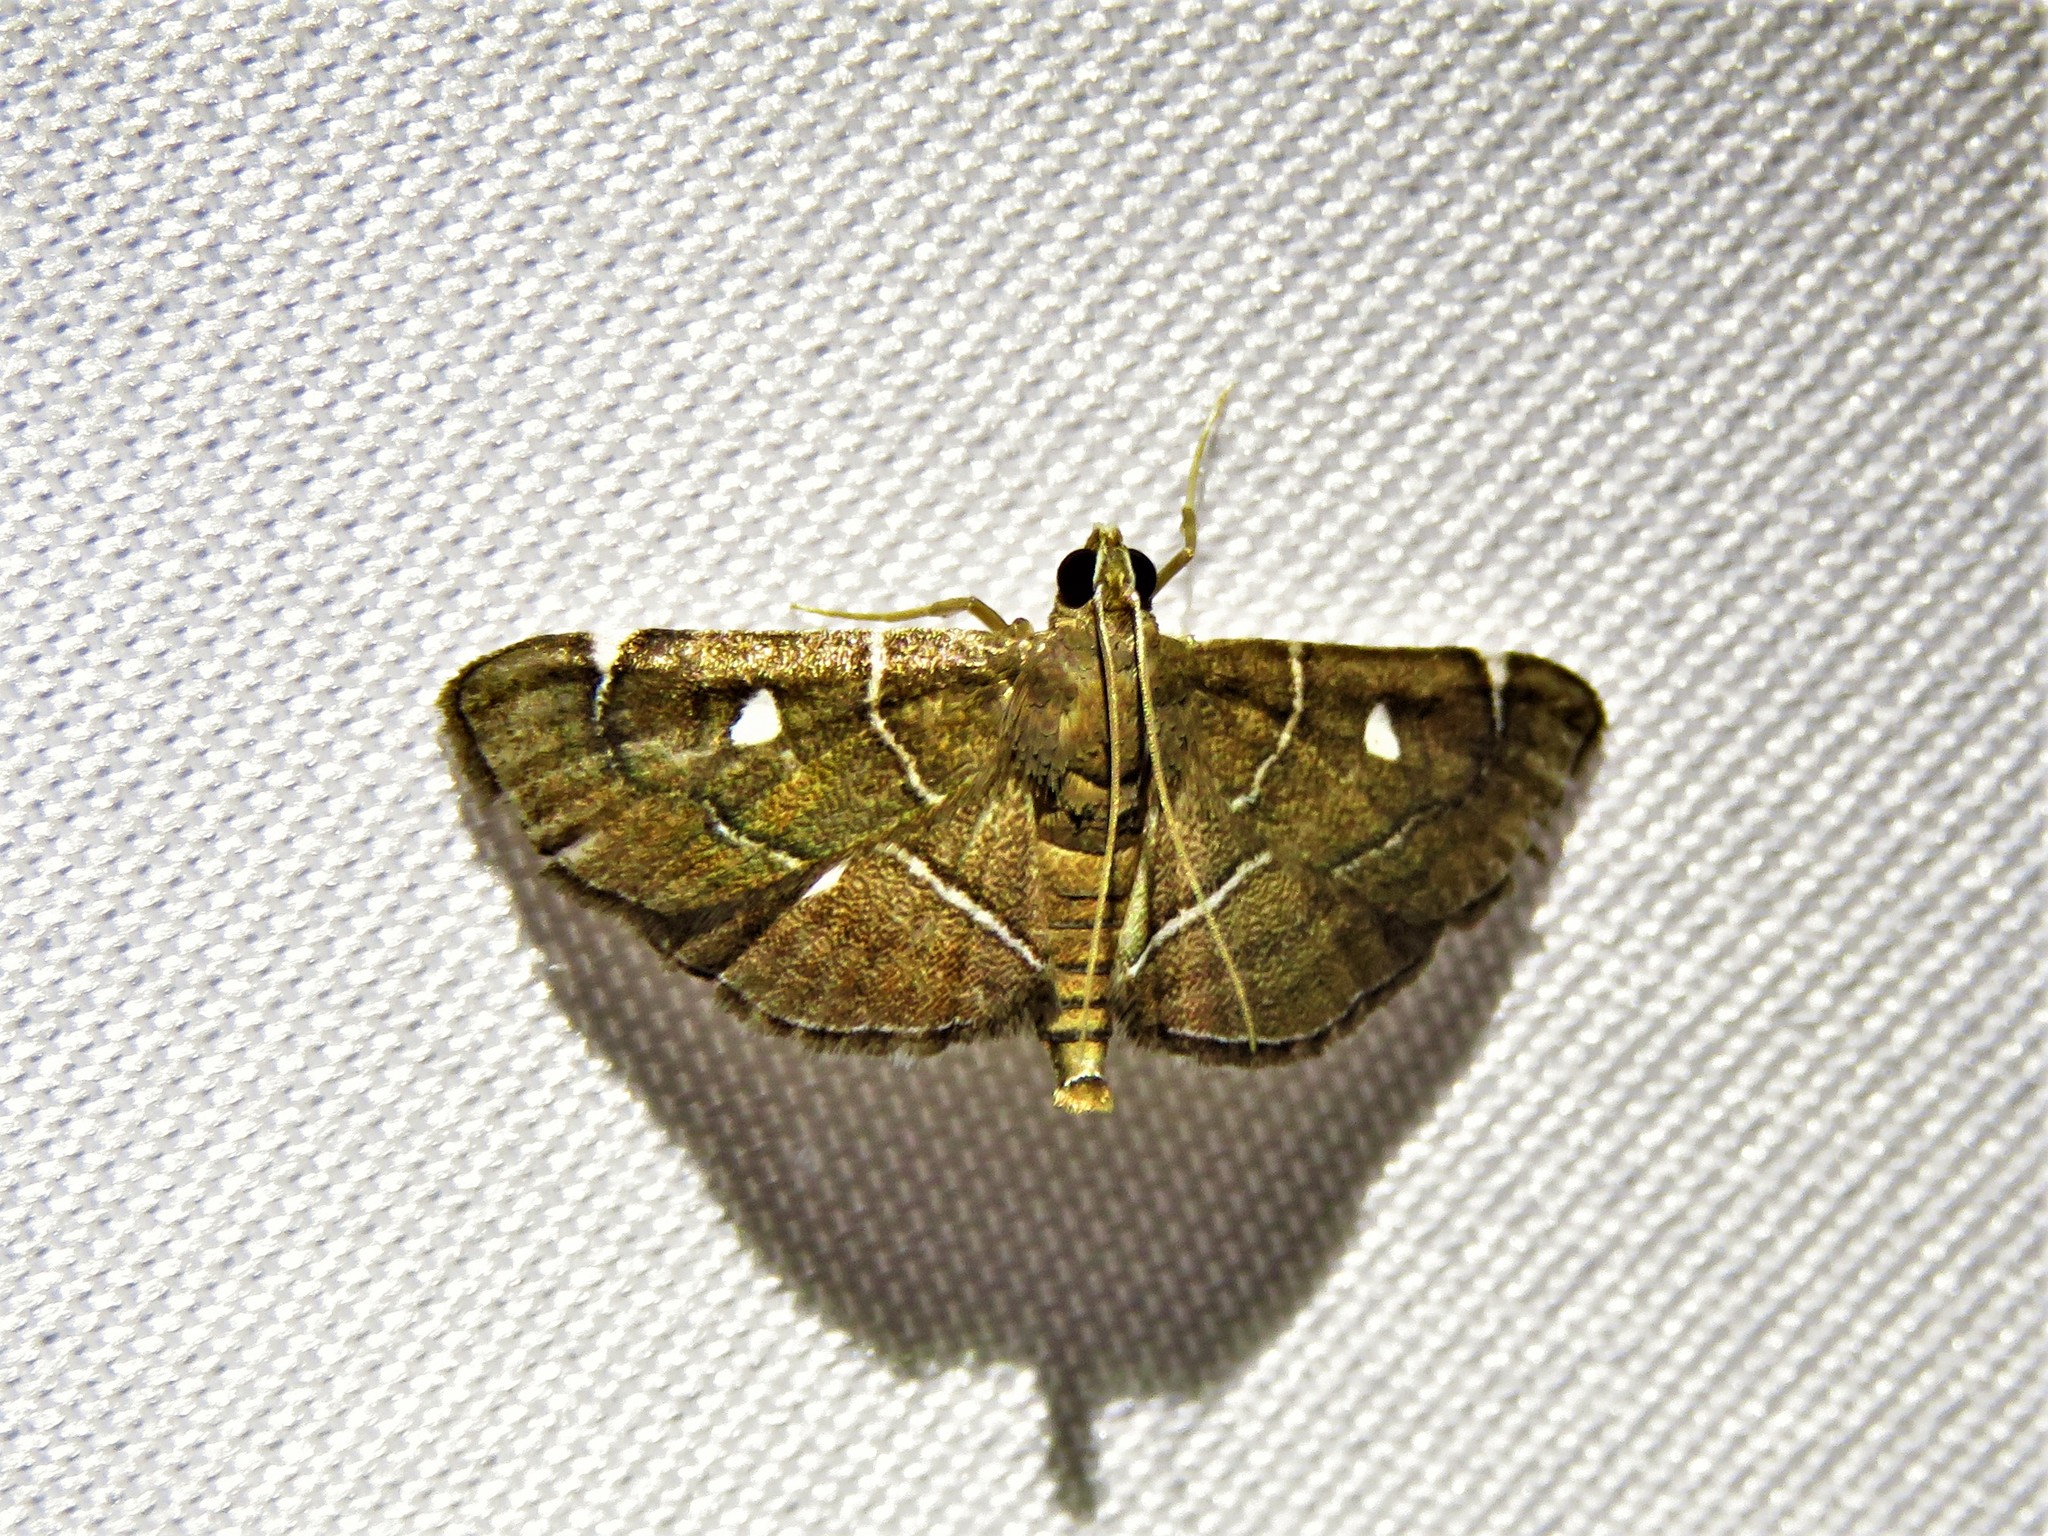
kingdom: Animalia
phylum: Arthropoda
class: Insecta
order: Lepidoptera
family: Crambidae
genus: Lamprosema
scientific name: Lamprosema victoriae
